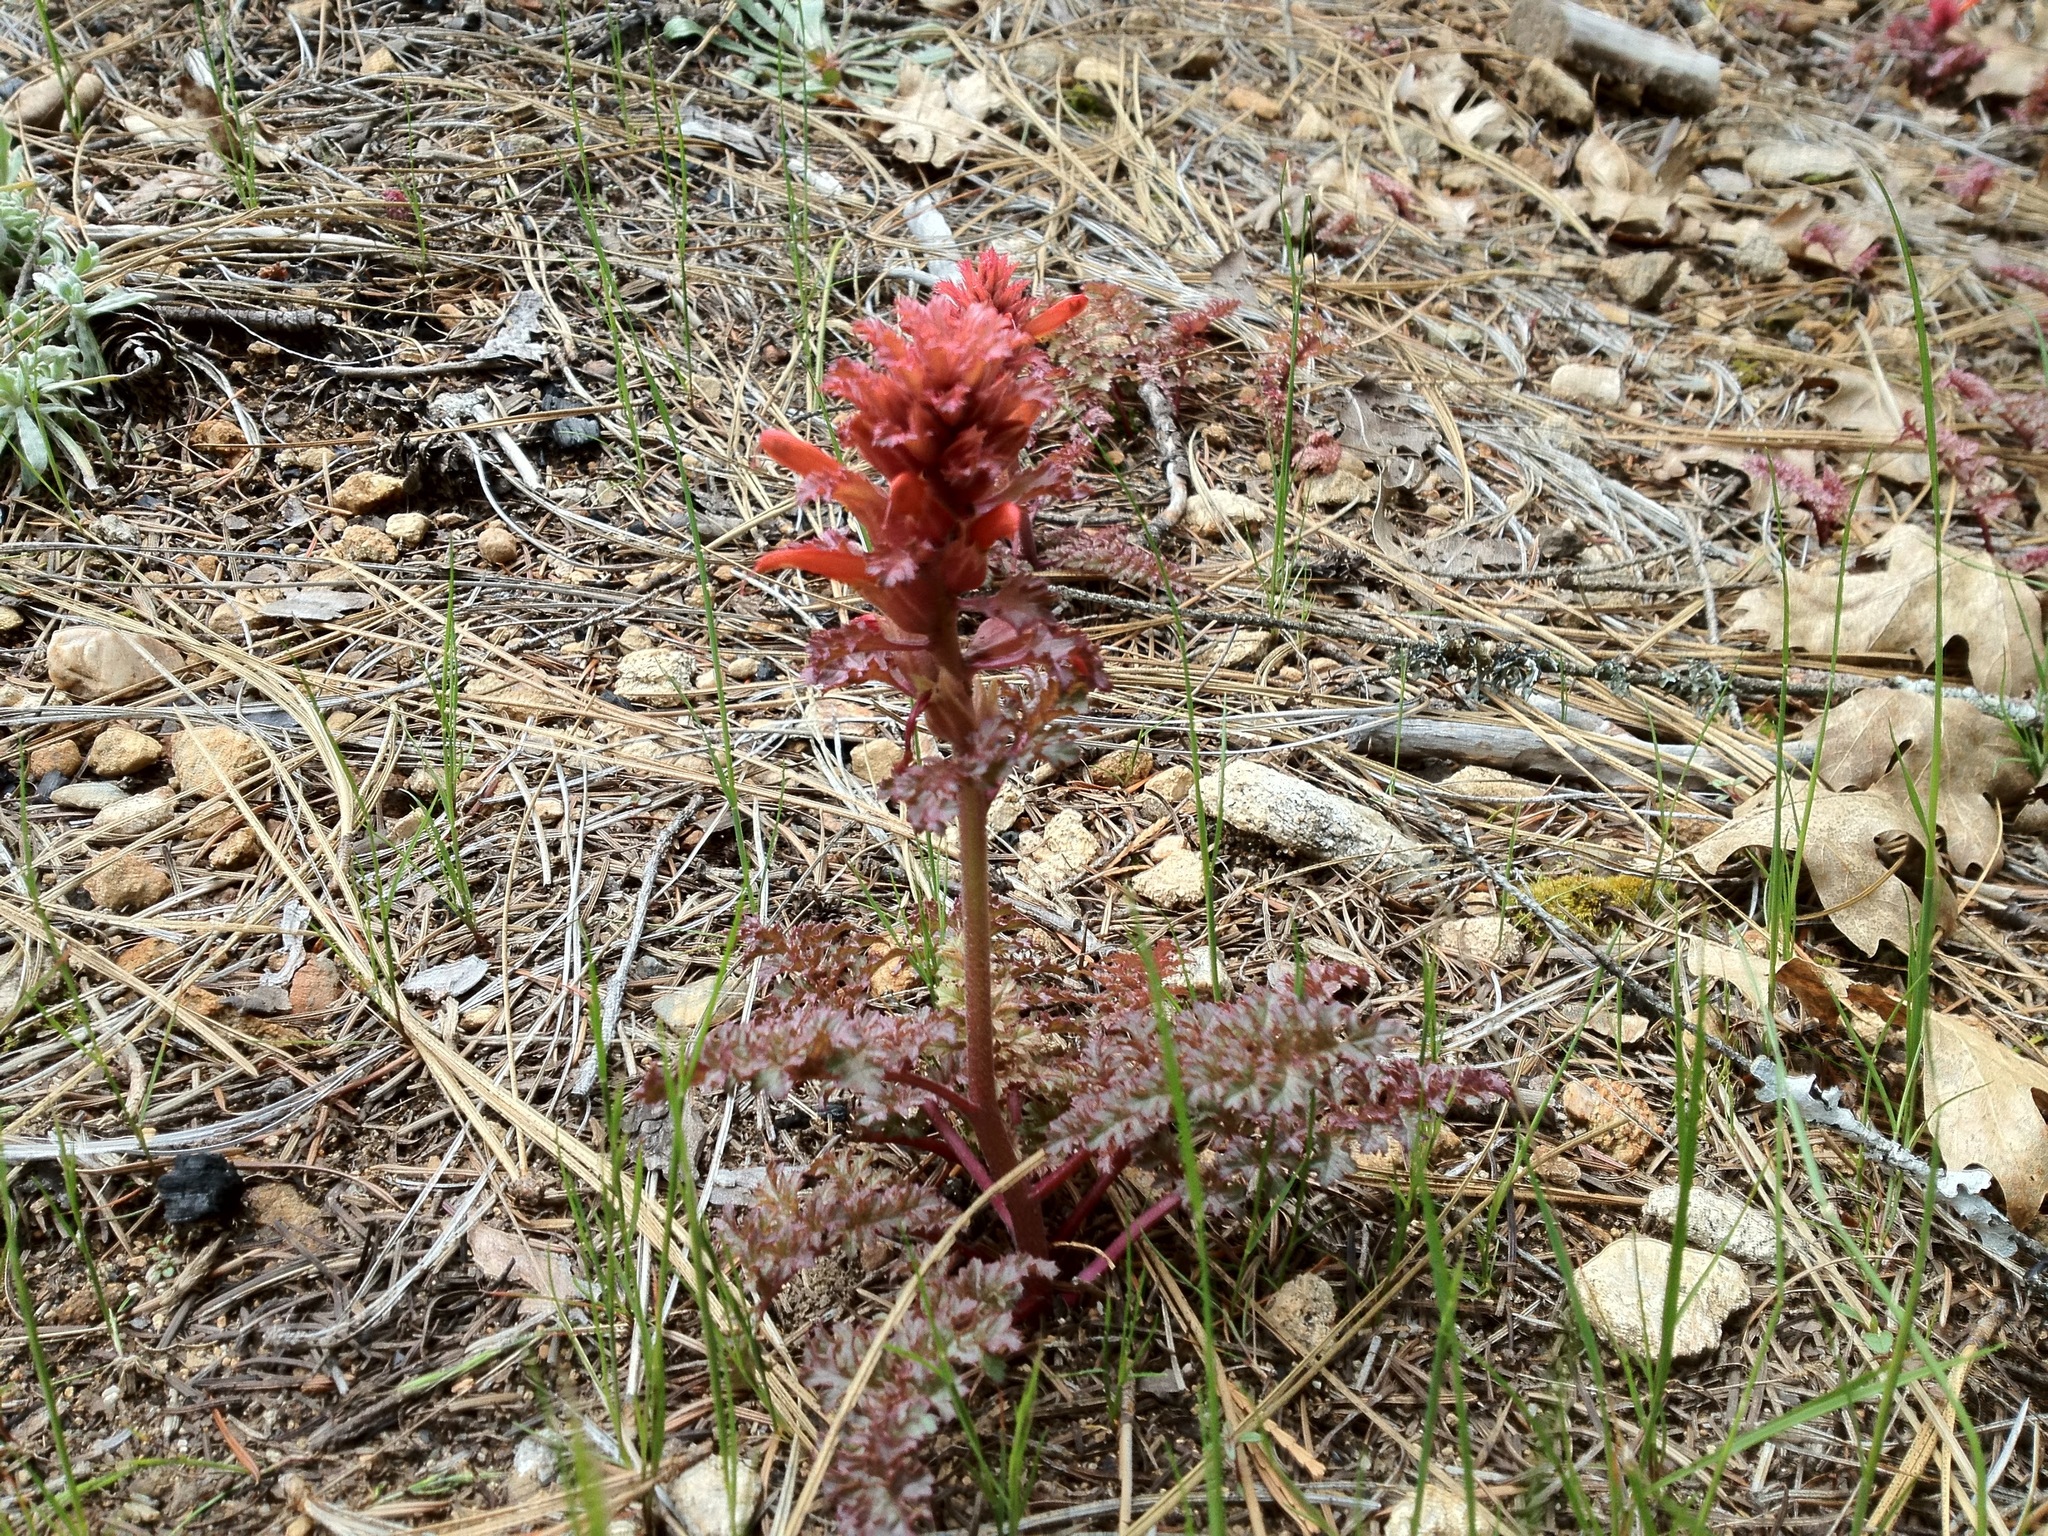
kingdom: Plantae
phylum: Tracheophyta
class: Magnoliopsida
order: Lamiales
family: Orobanchaceae
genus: Pedicularis
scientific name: Pedicularis aurantiaca
